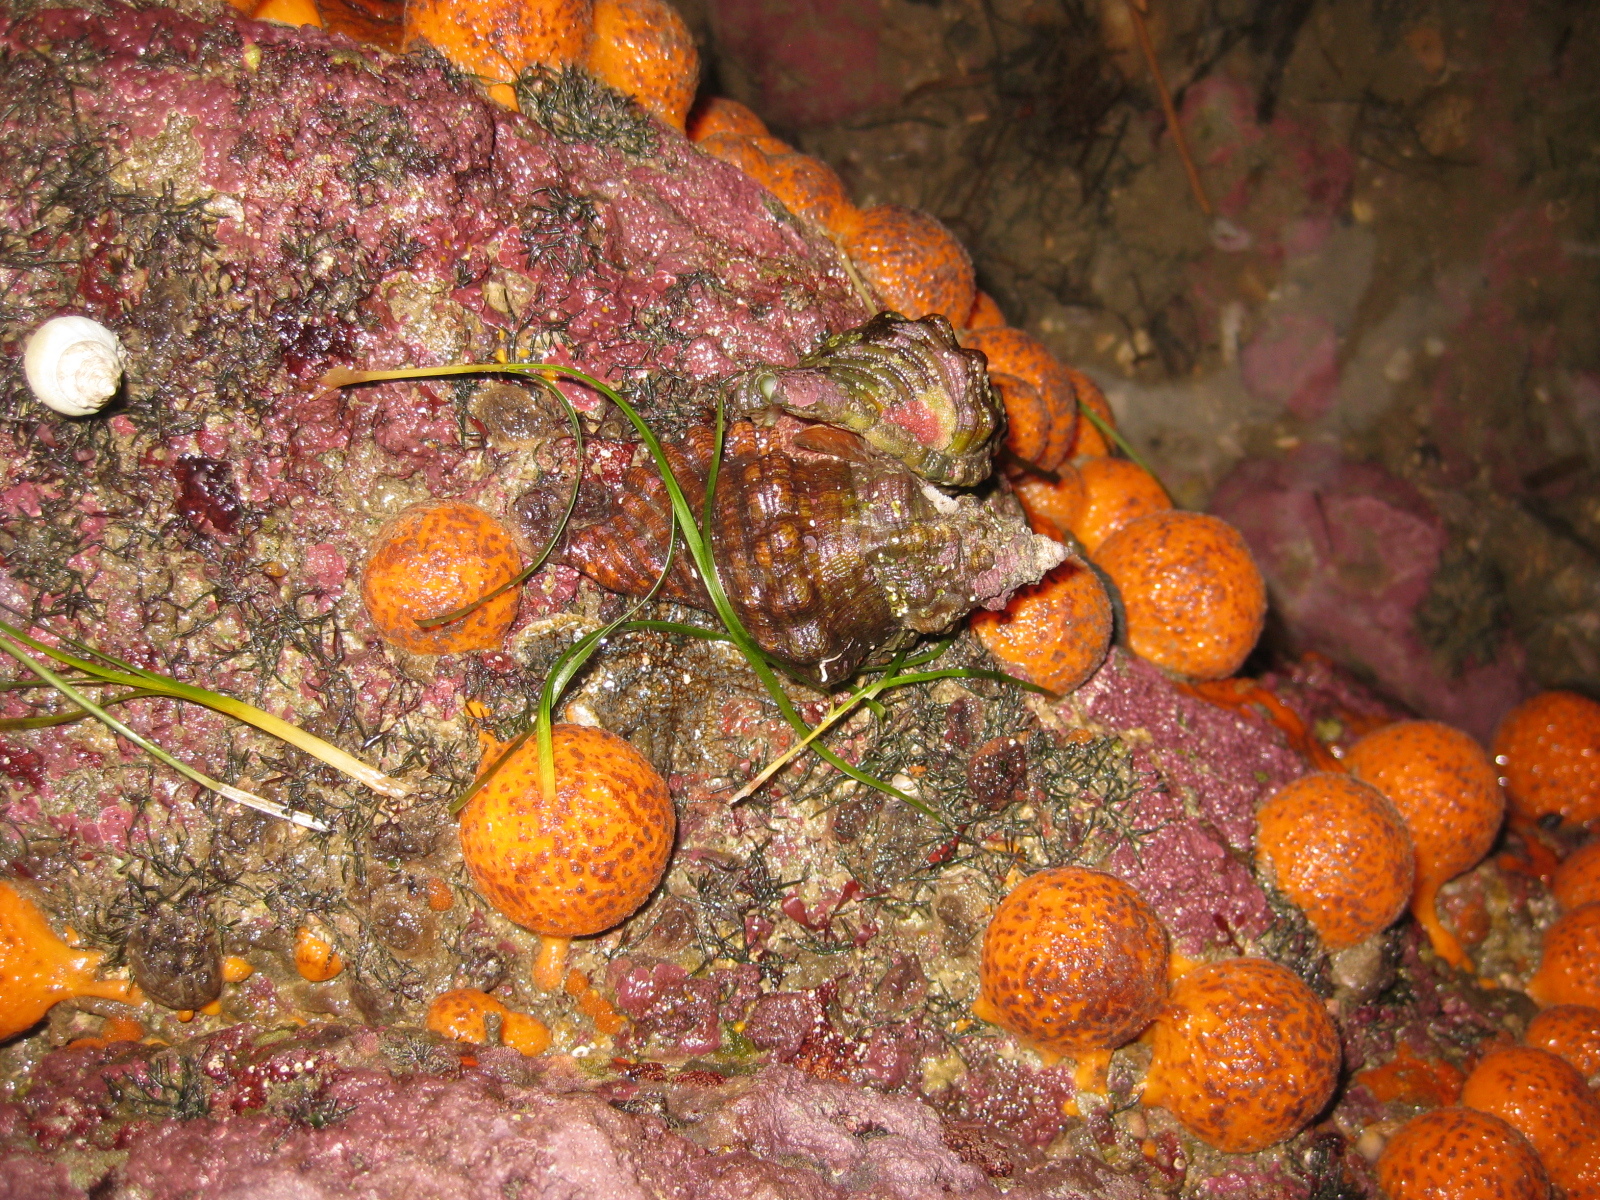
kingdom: Animalia
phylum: Mollusca
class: Gastropoda
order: Littorinimorpha
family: Cymatiidae
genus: Cabestana
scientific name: Cabestana spengleri
